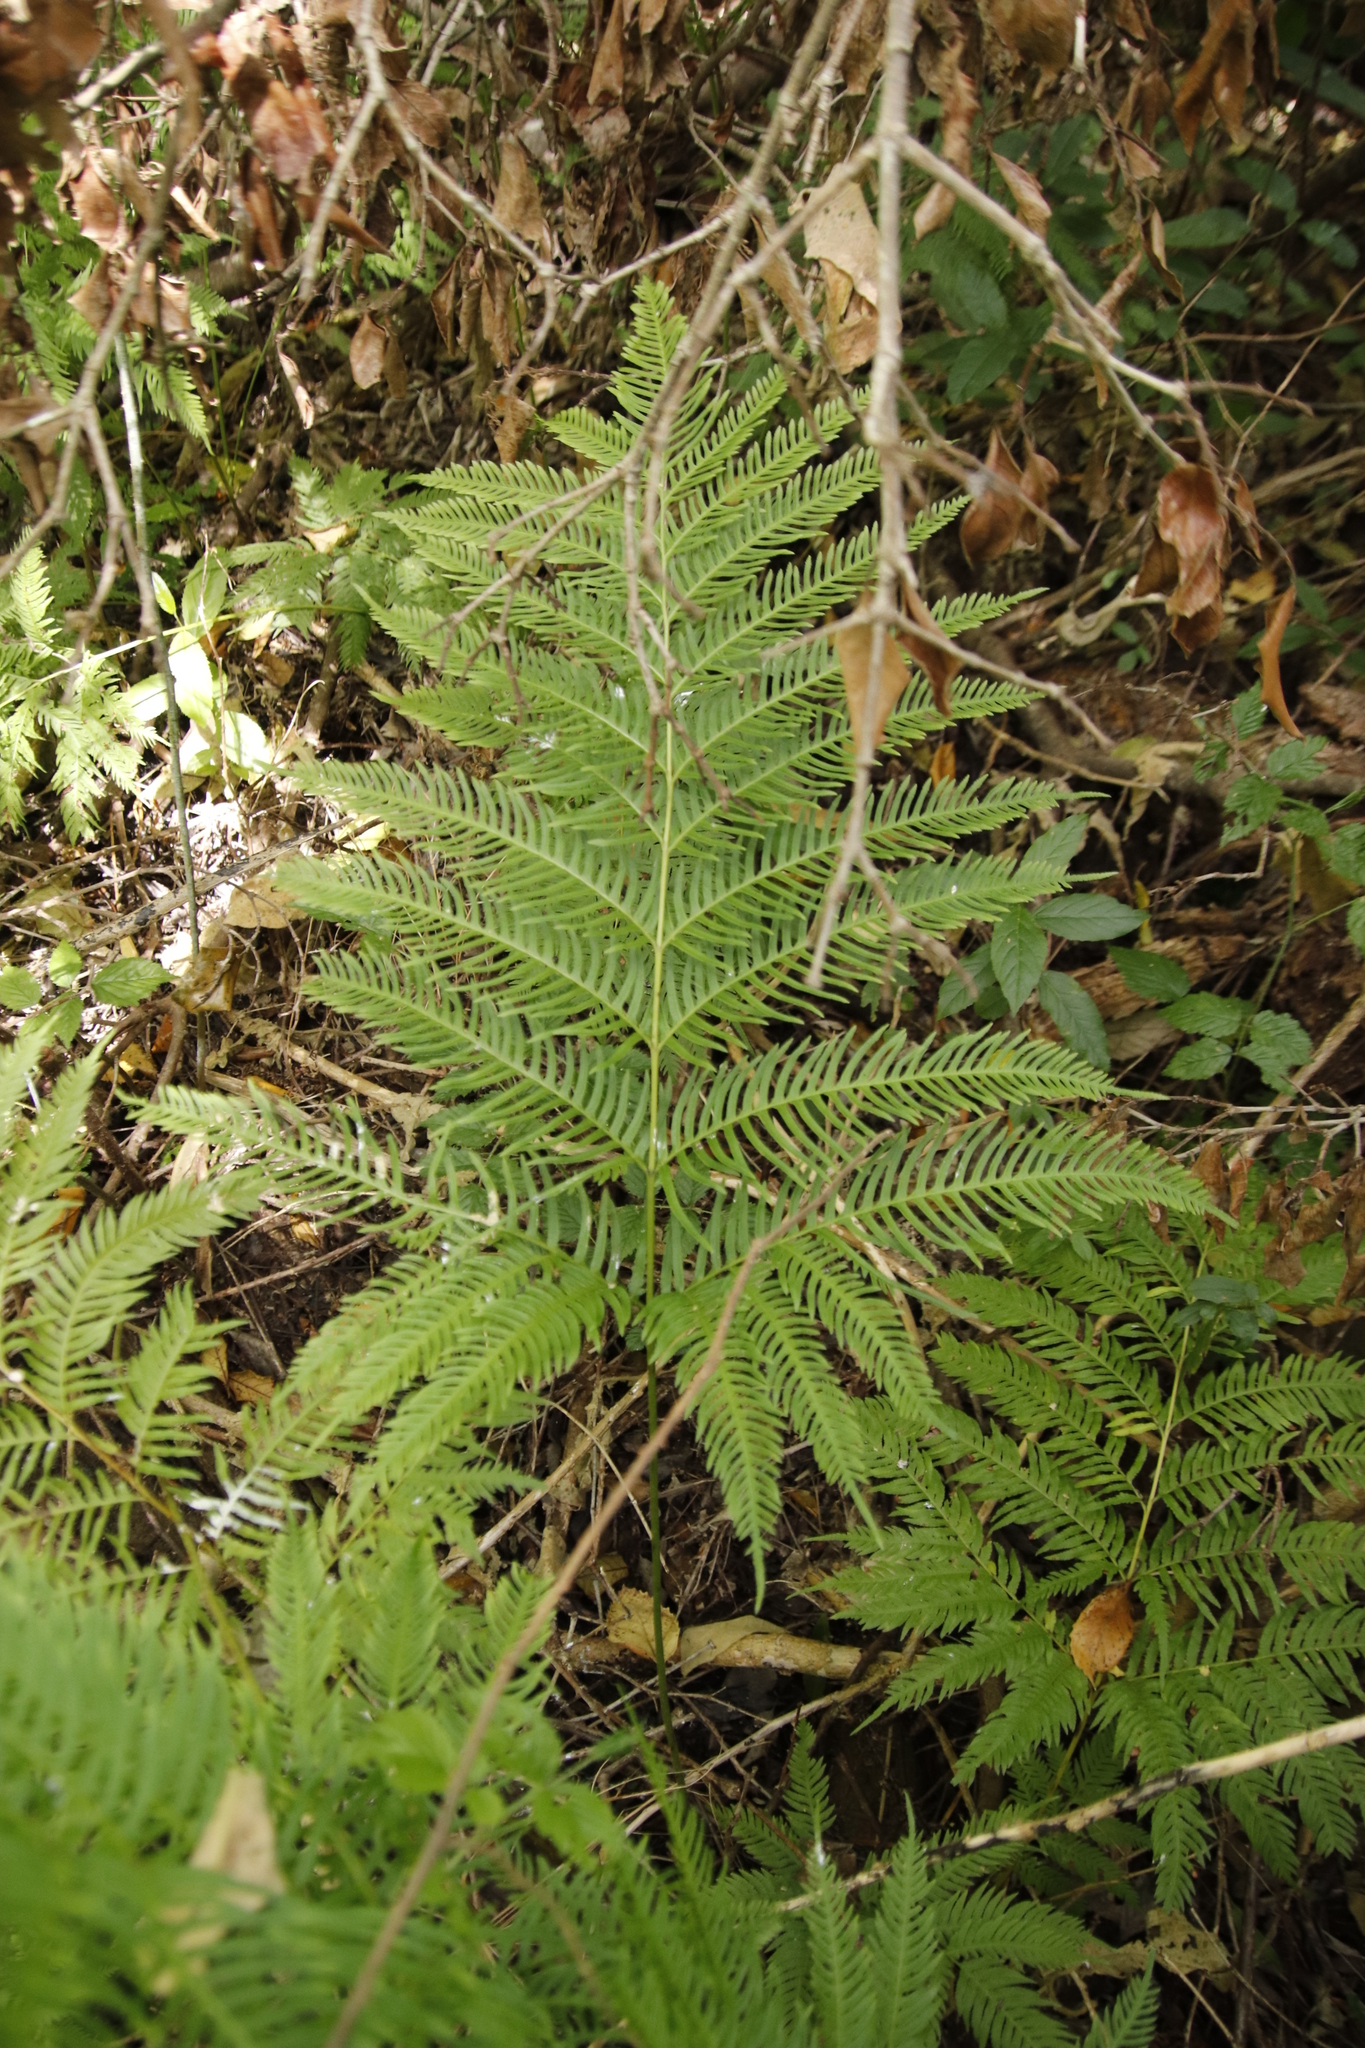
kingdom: Plantae
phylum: Tracheophyta
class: Polypodiopsida
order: Polypodiales
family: Pteridaceae
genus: Pteris
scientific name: Pteris dentata
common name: Toothed brake
